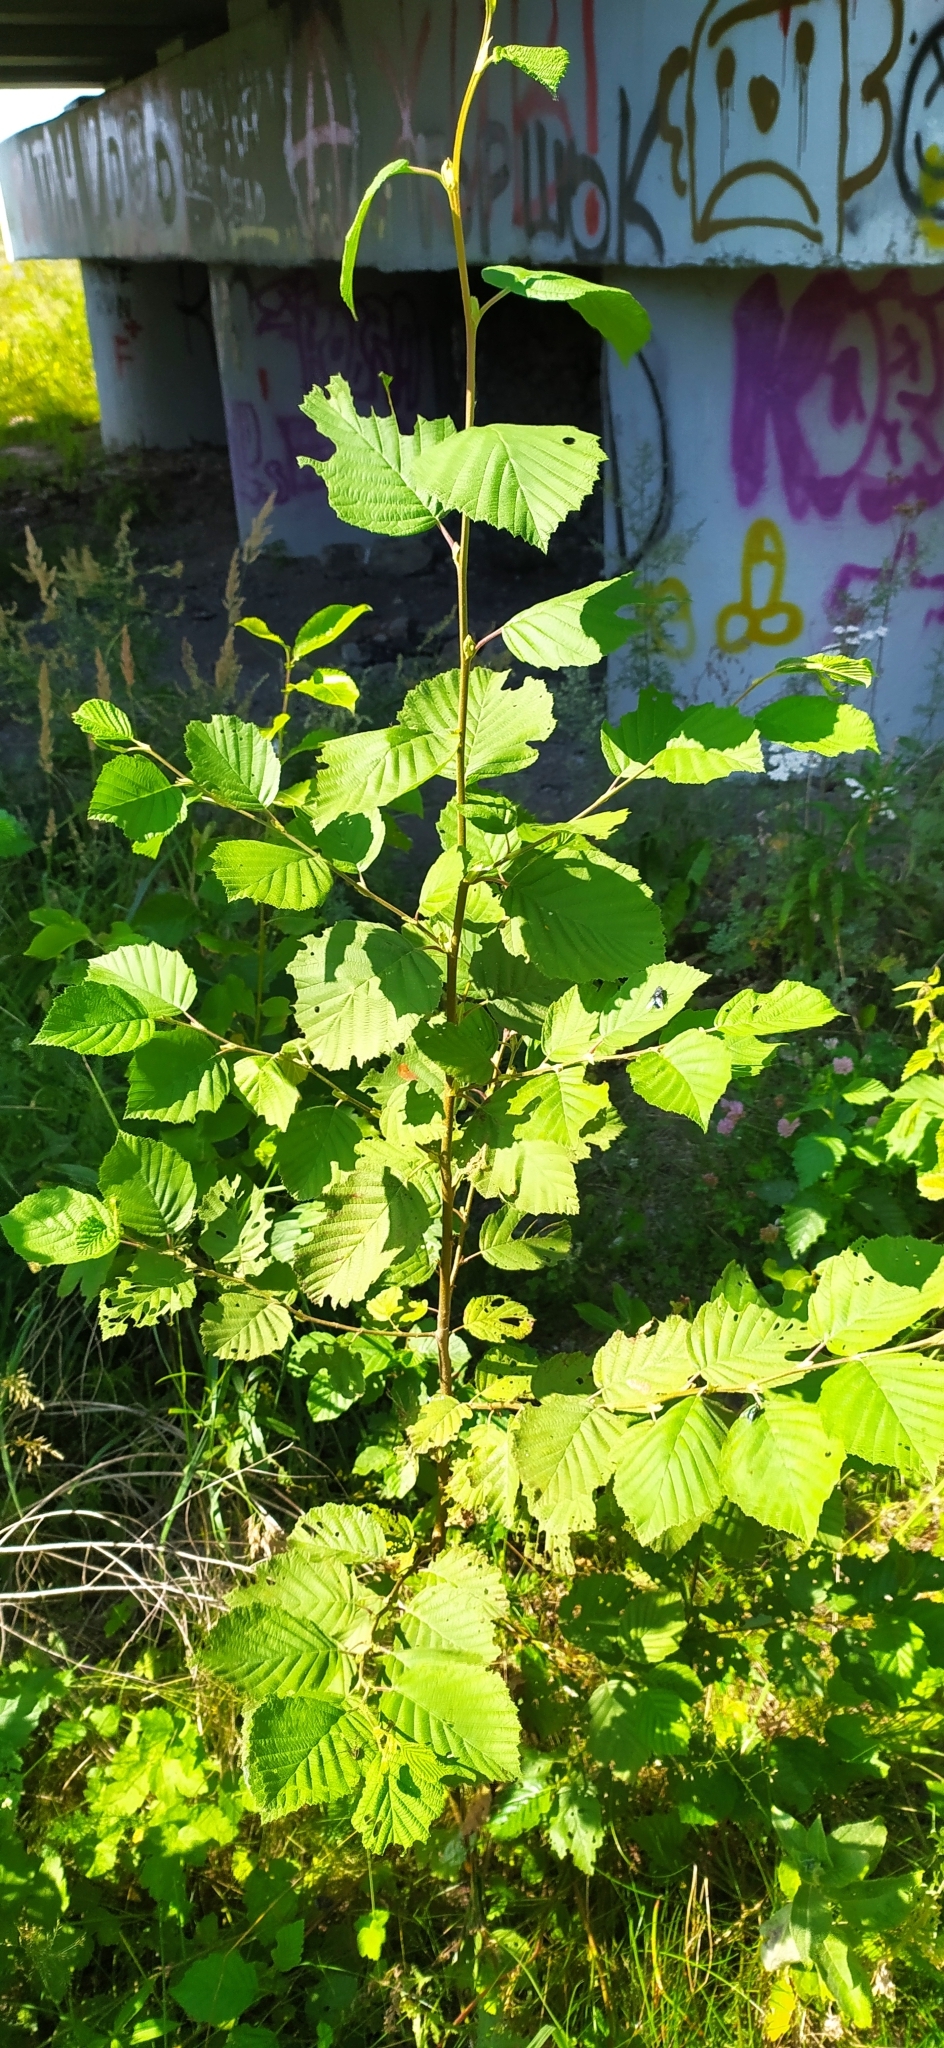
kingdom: Plantae
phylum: Tracheophyta
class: Magnoliopsida
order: Fagales
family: Betulaceae
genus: Alnus
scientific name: Alnus incana
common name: Grey alder
